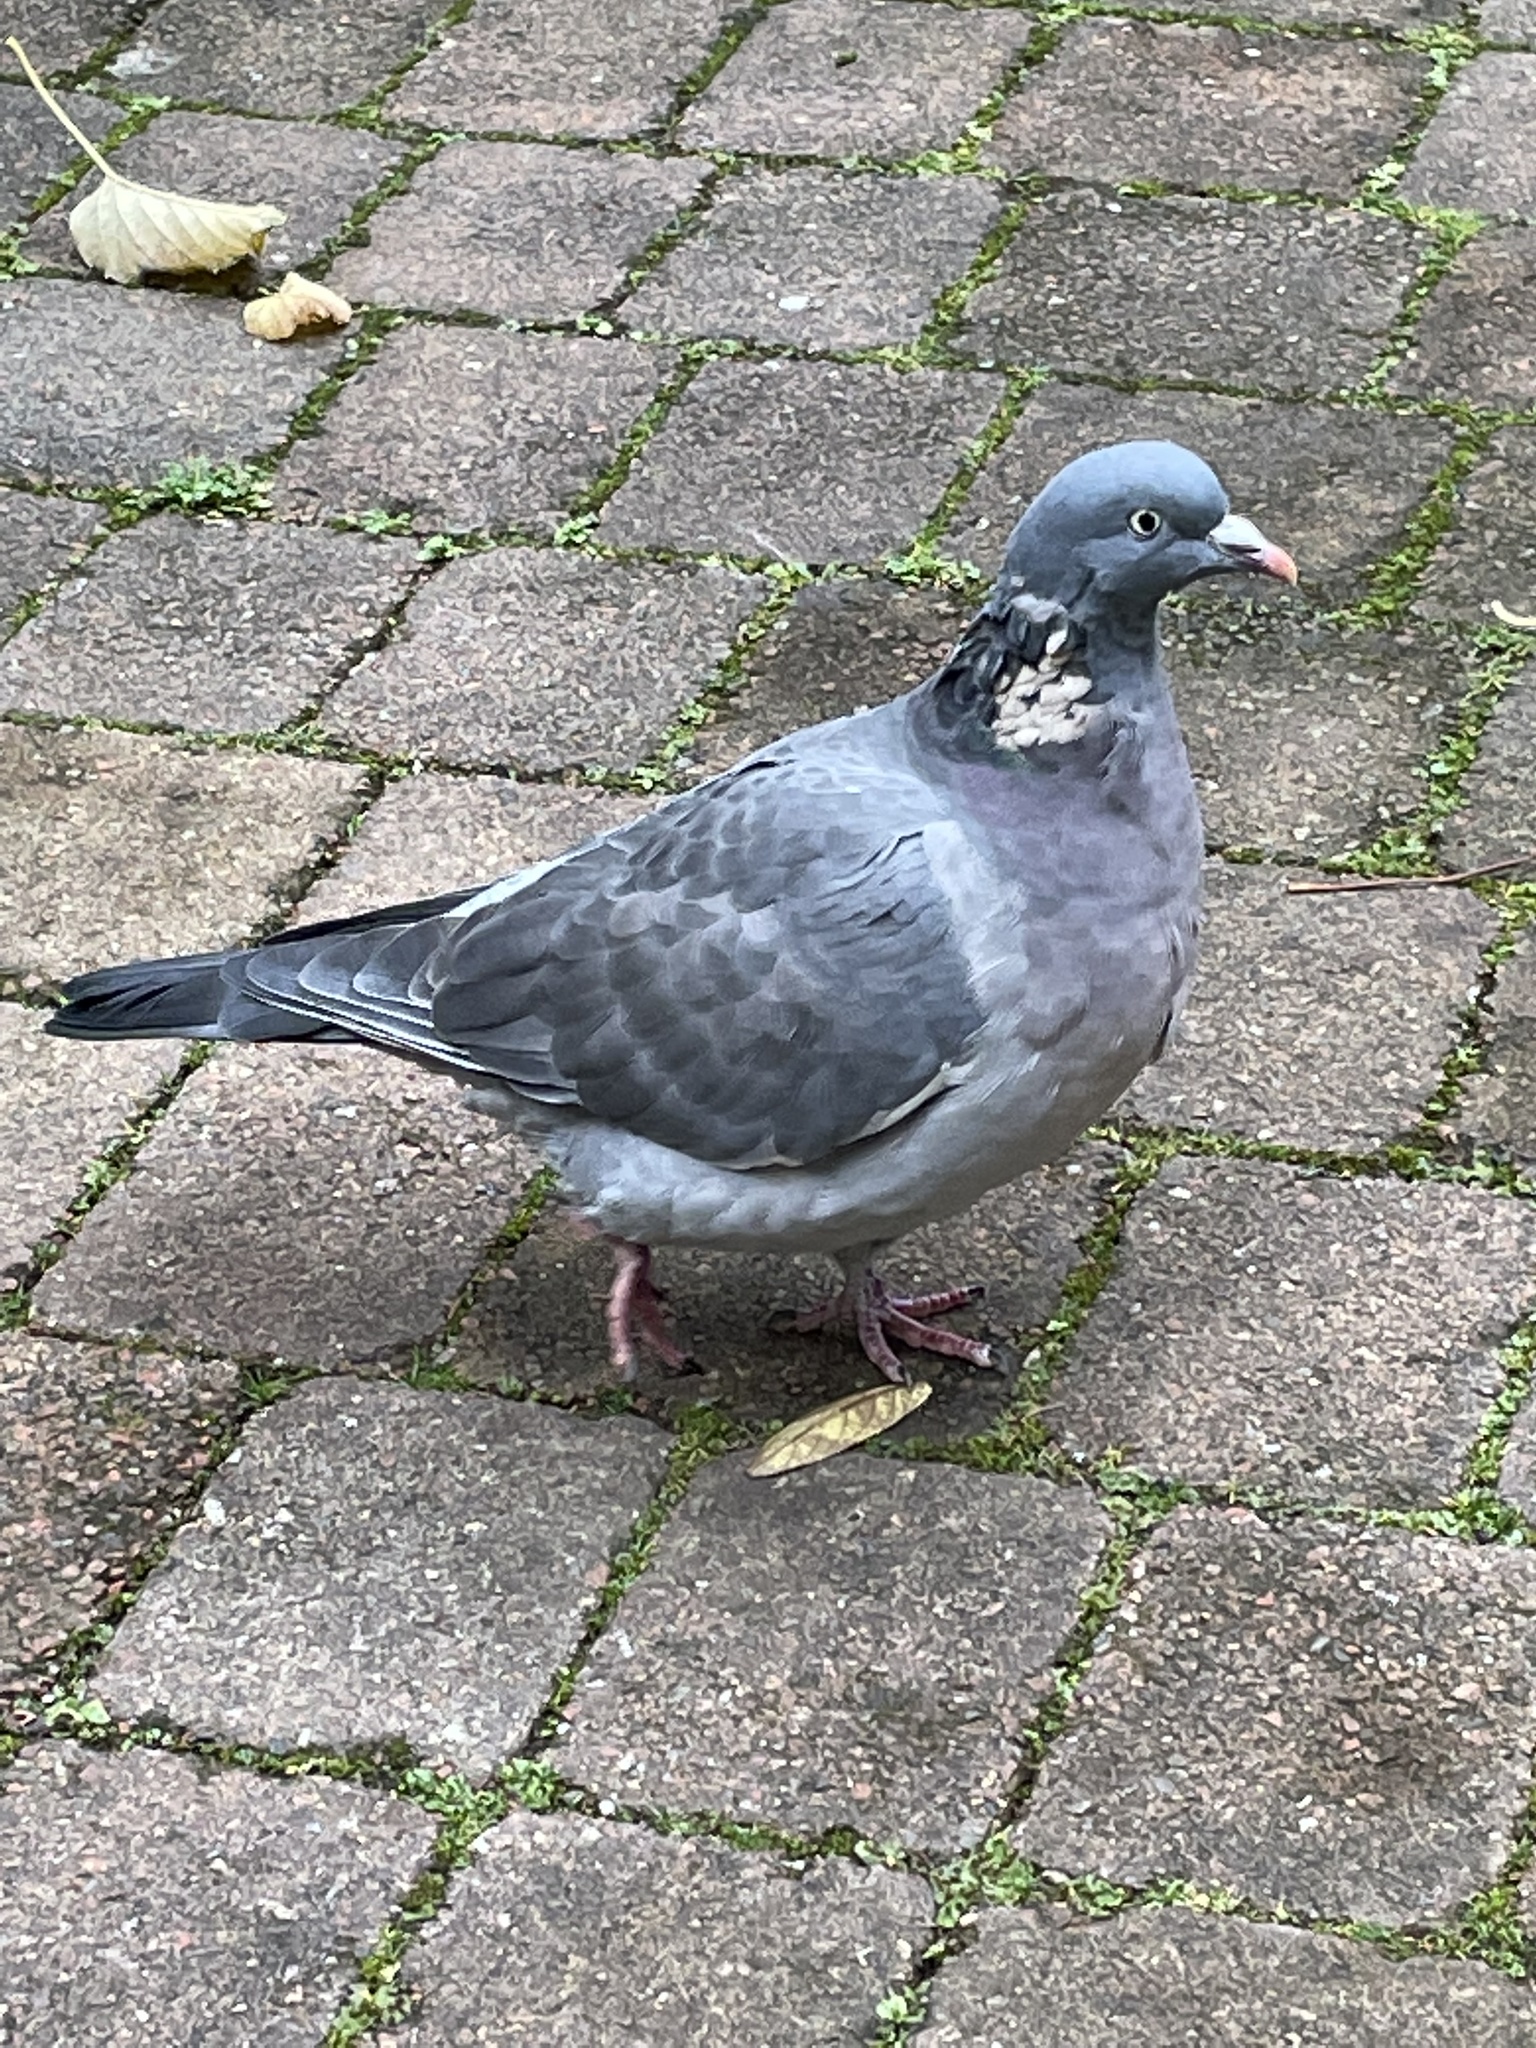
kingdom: Animalia
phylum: Chordata
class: Aves
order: Columbiformes
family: Columbidae
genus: Columba
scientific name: Columba palumbus
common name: Common wood pigeon
